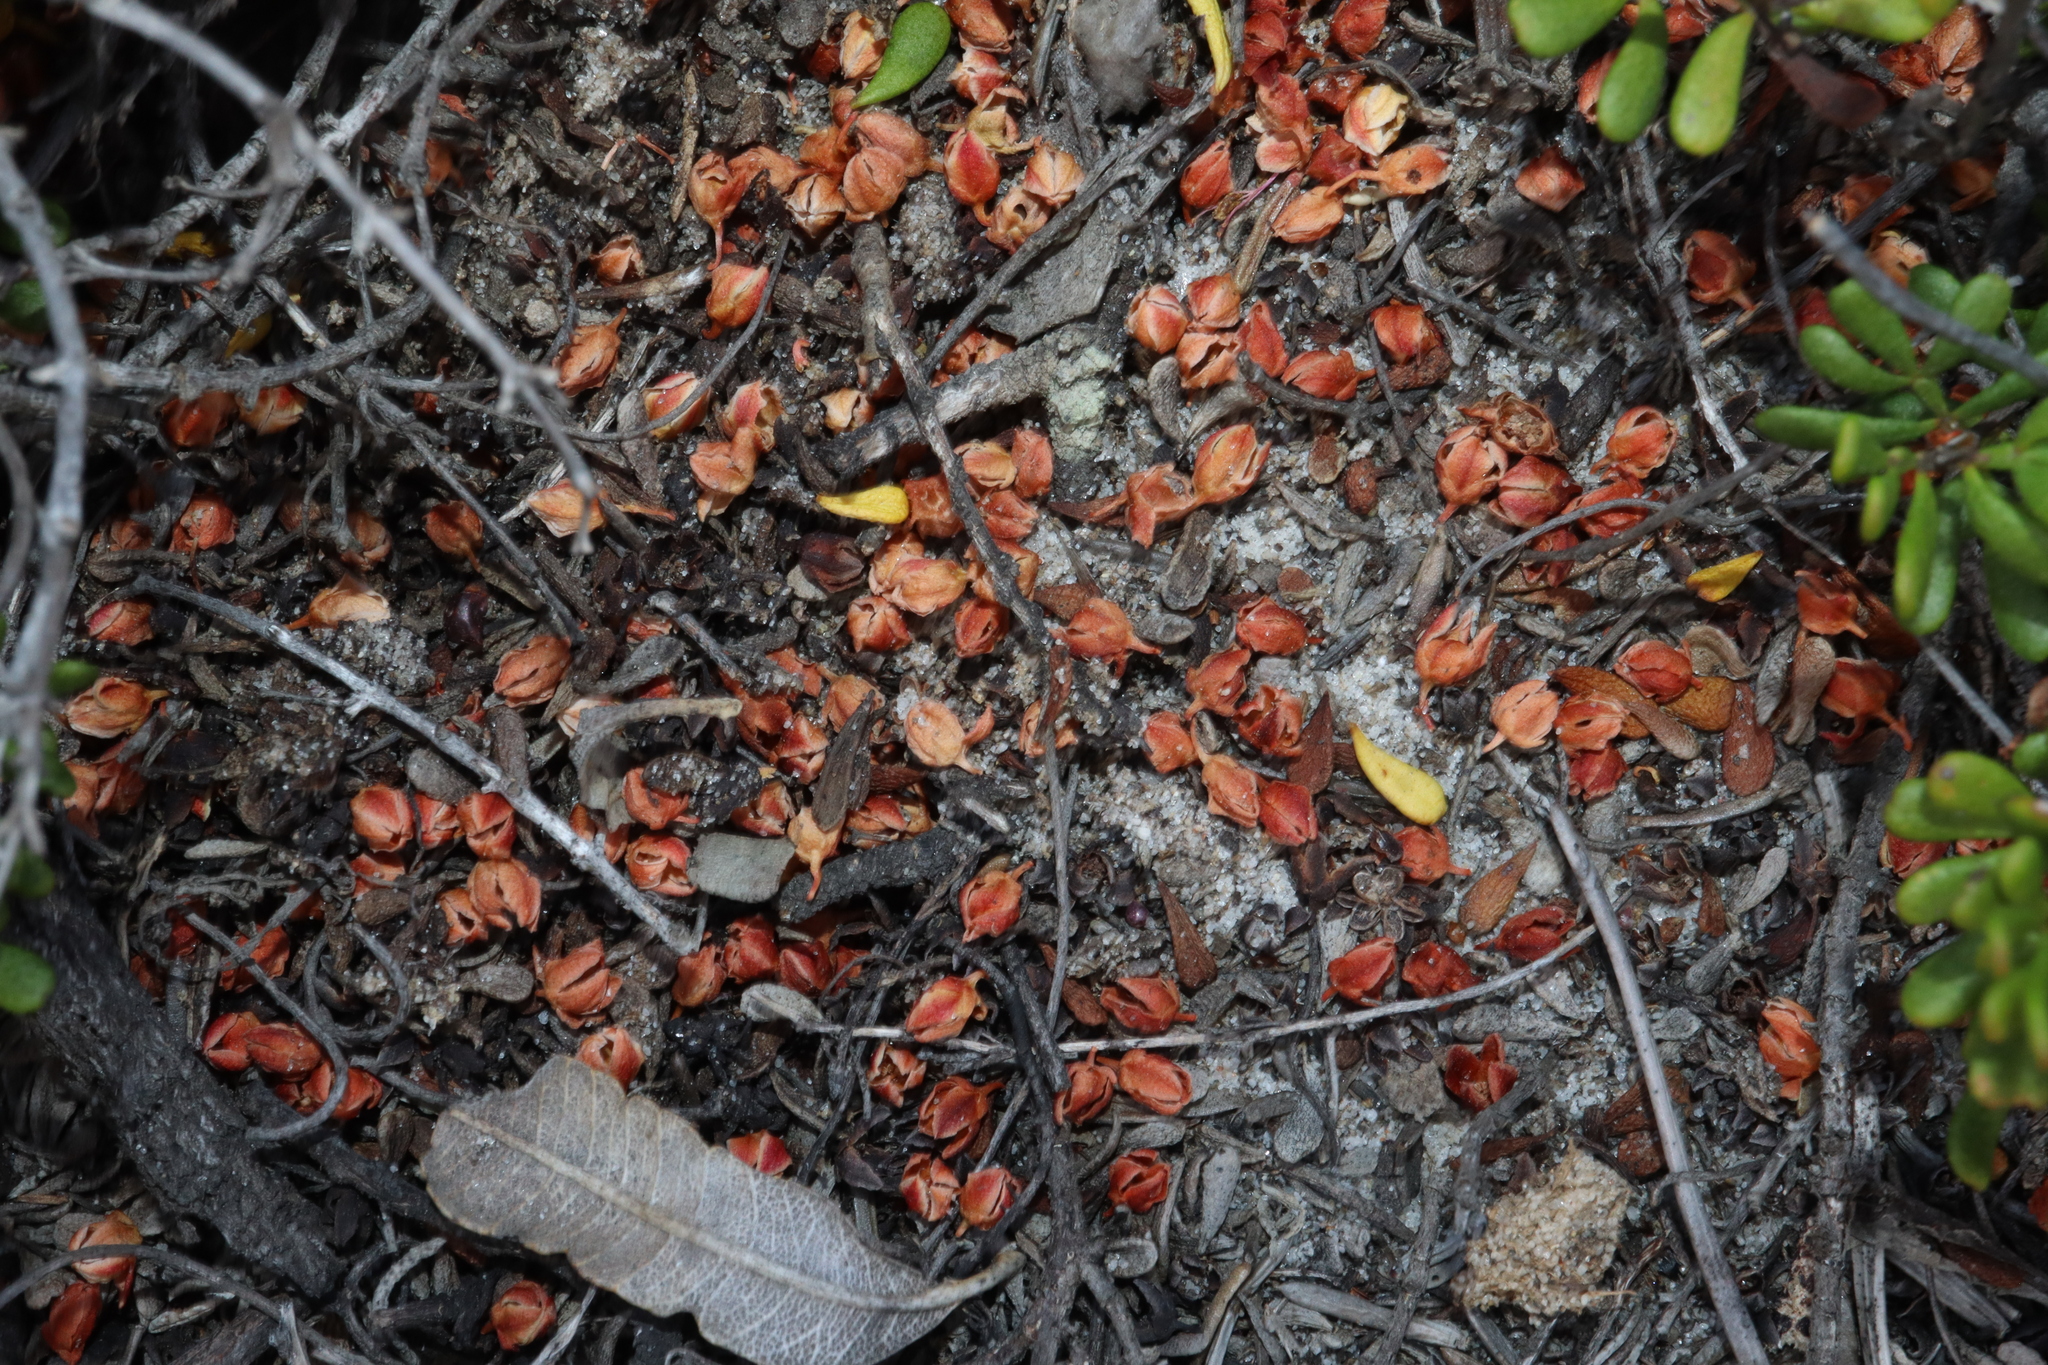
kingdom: Plantae
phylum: Tracheophyta
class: Magnoliopsida
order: Sapindales
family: Rutaceae
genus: Boronia
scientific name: Boronia crassifolia
